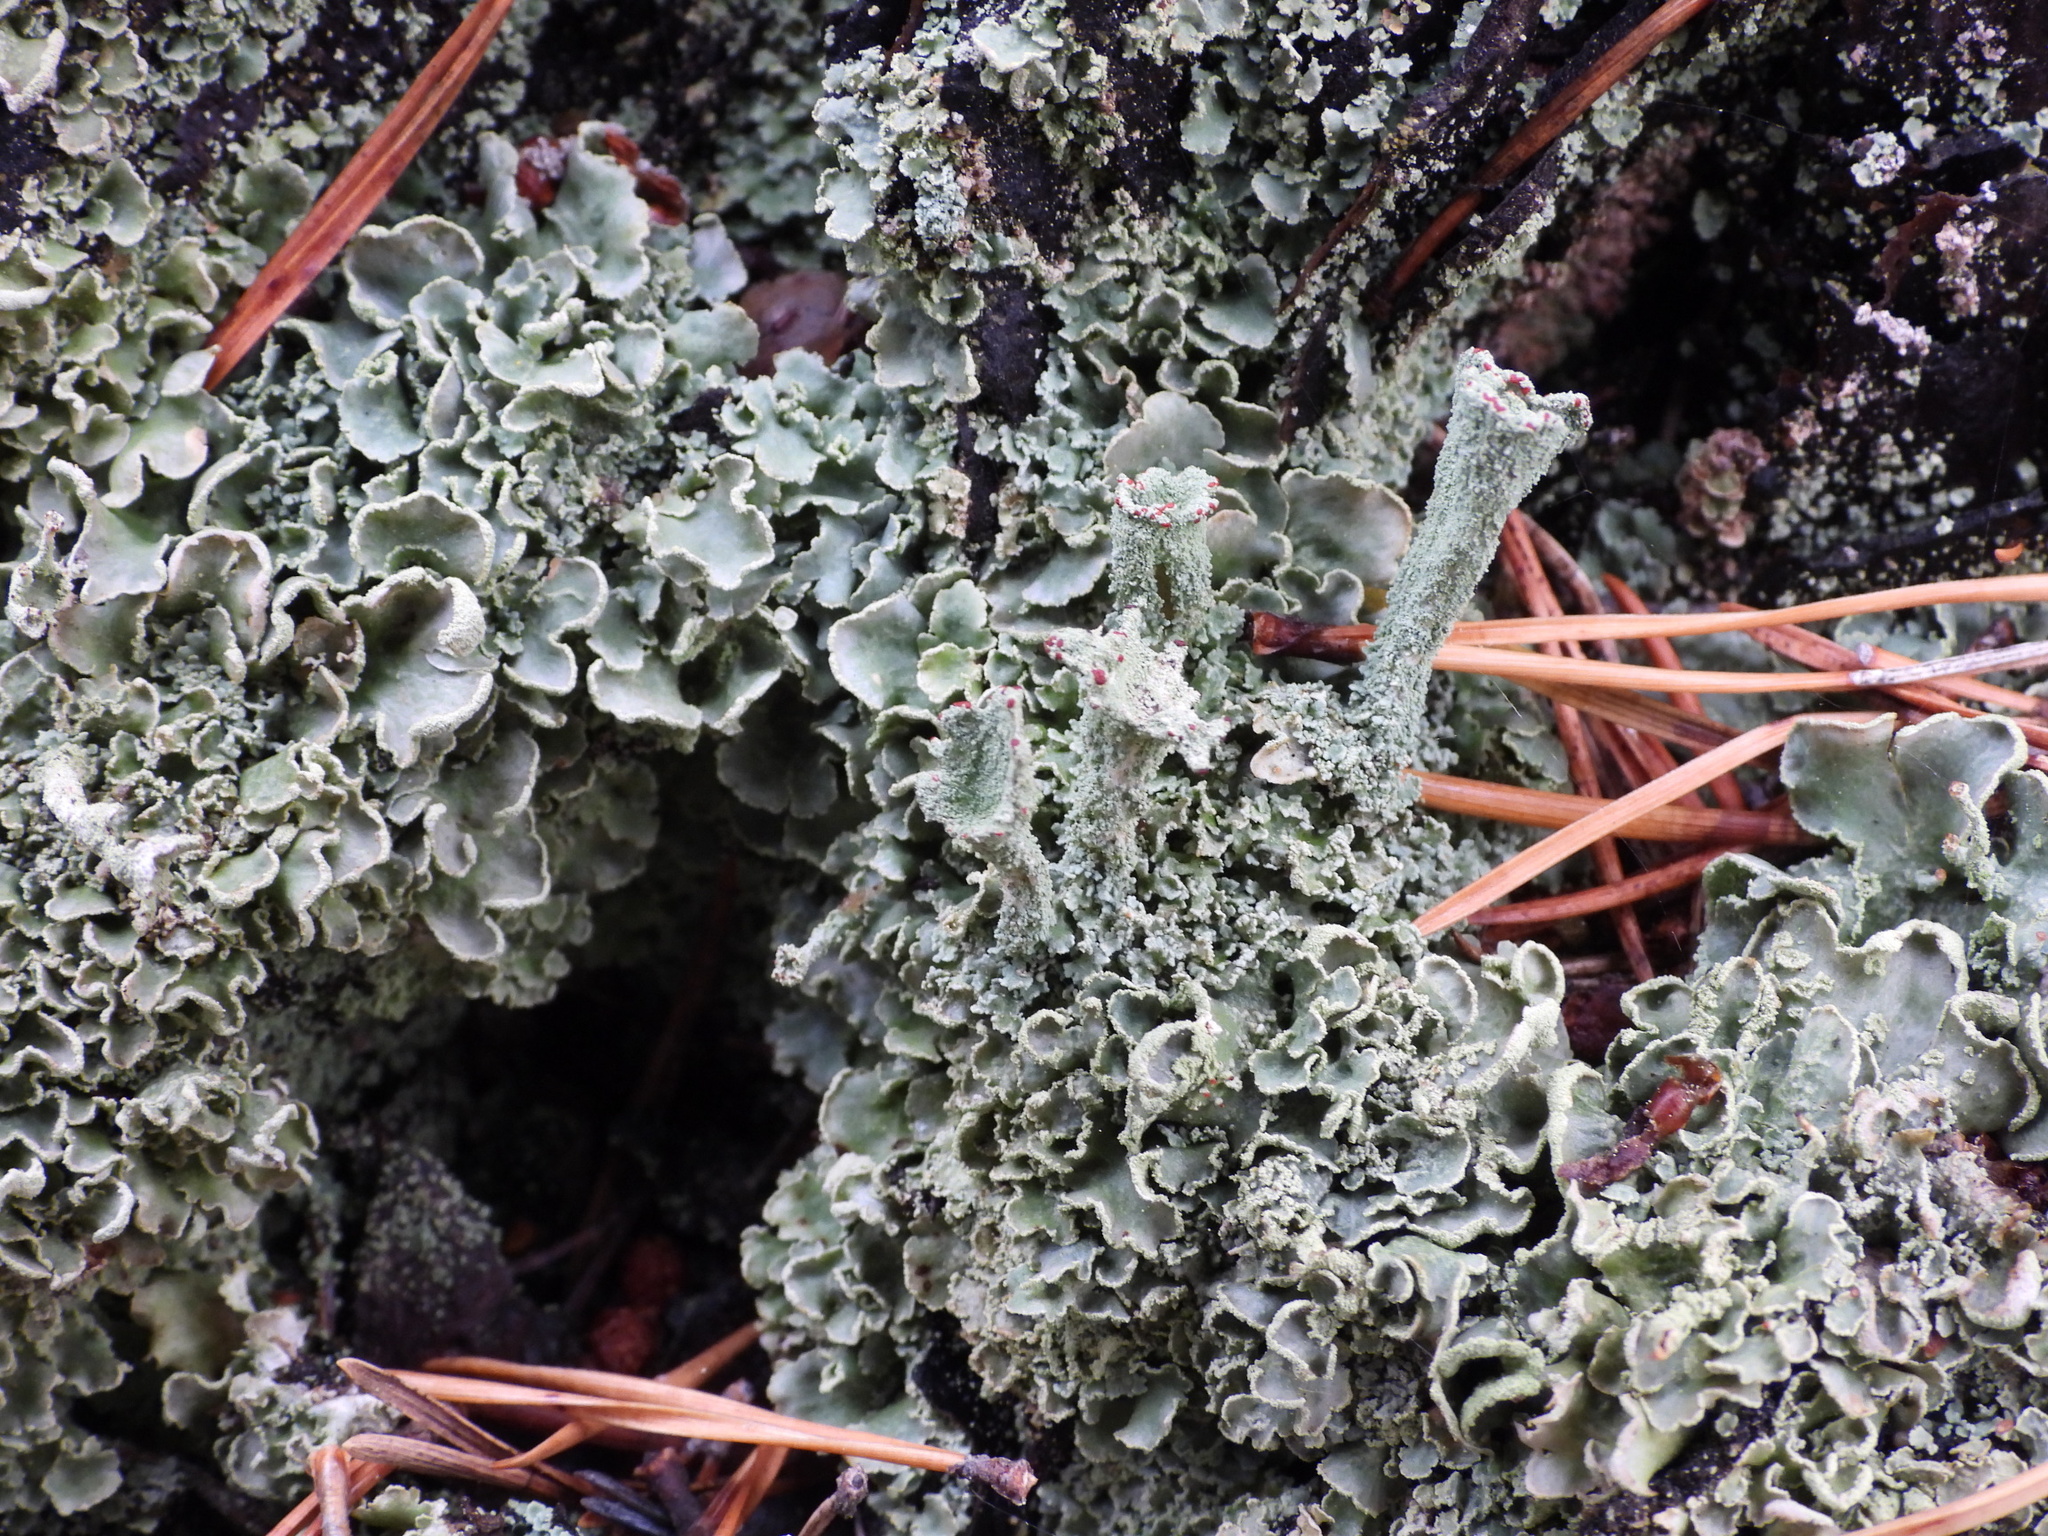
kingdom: Fungi
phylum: Ascomycota
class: Lecanoromycetes
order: Lecanorales
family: Cladoniaceae
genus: Cladonia
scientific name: Cladonia digitata
